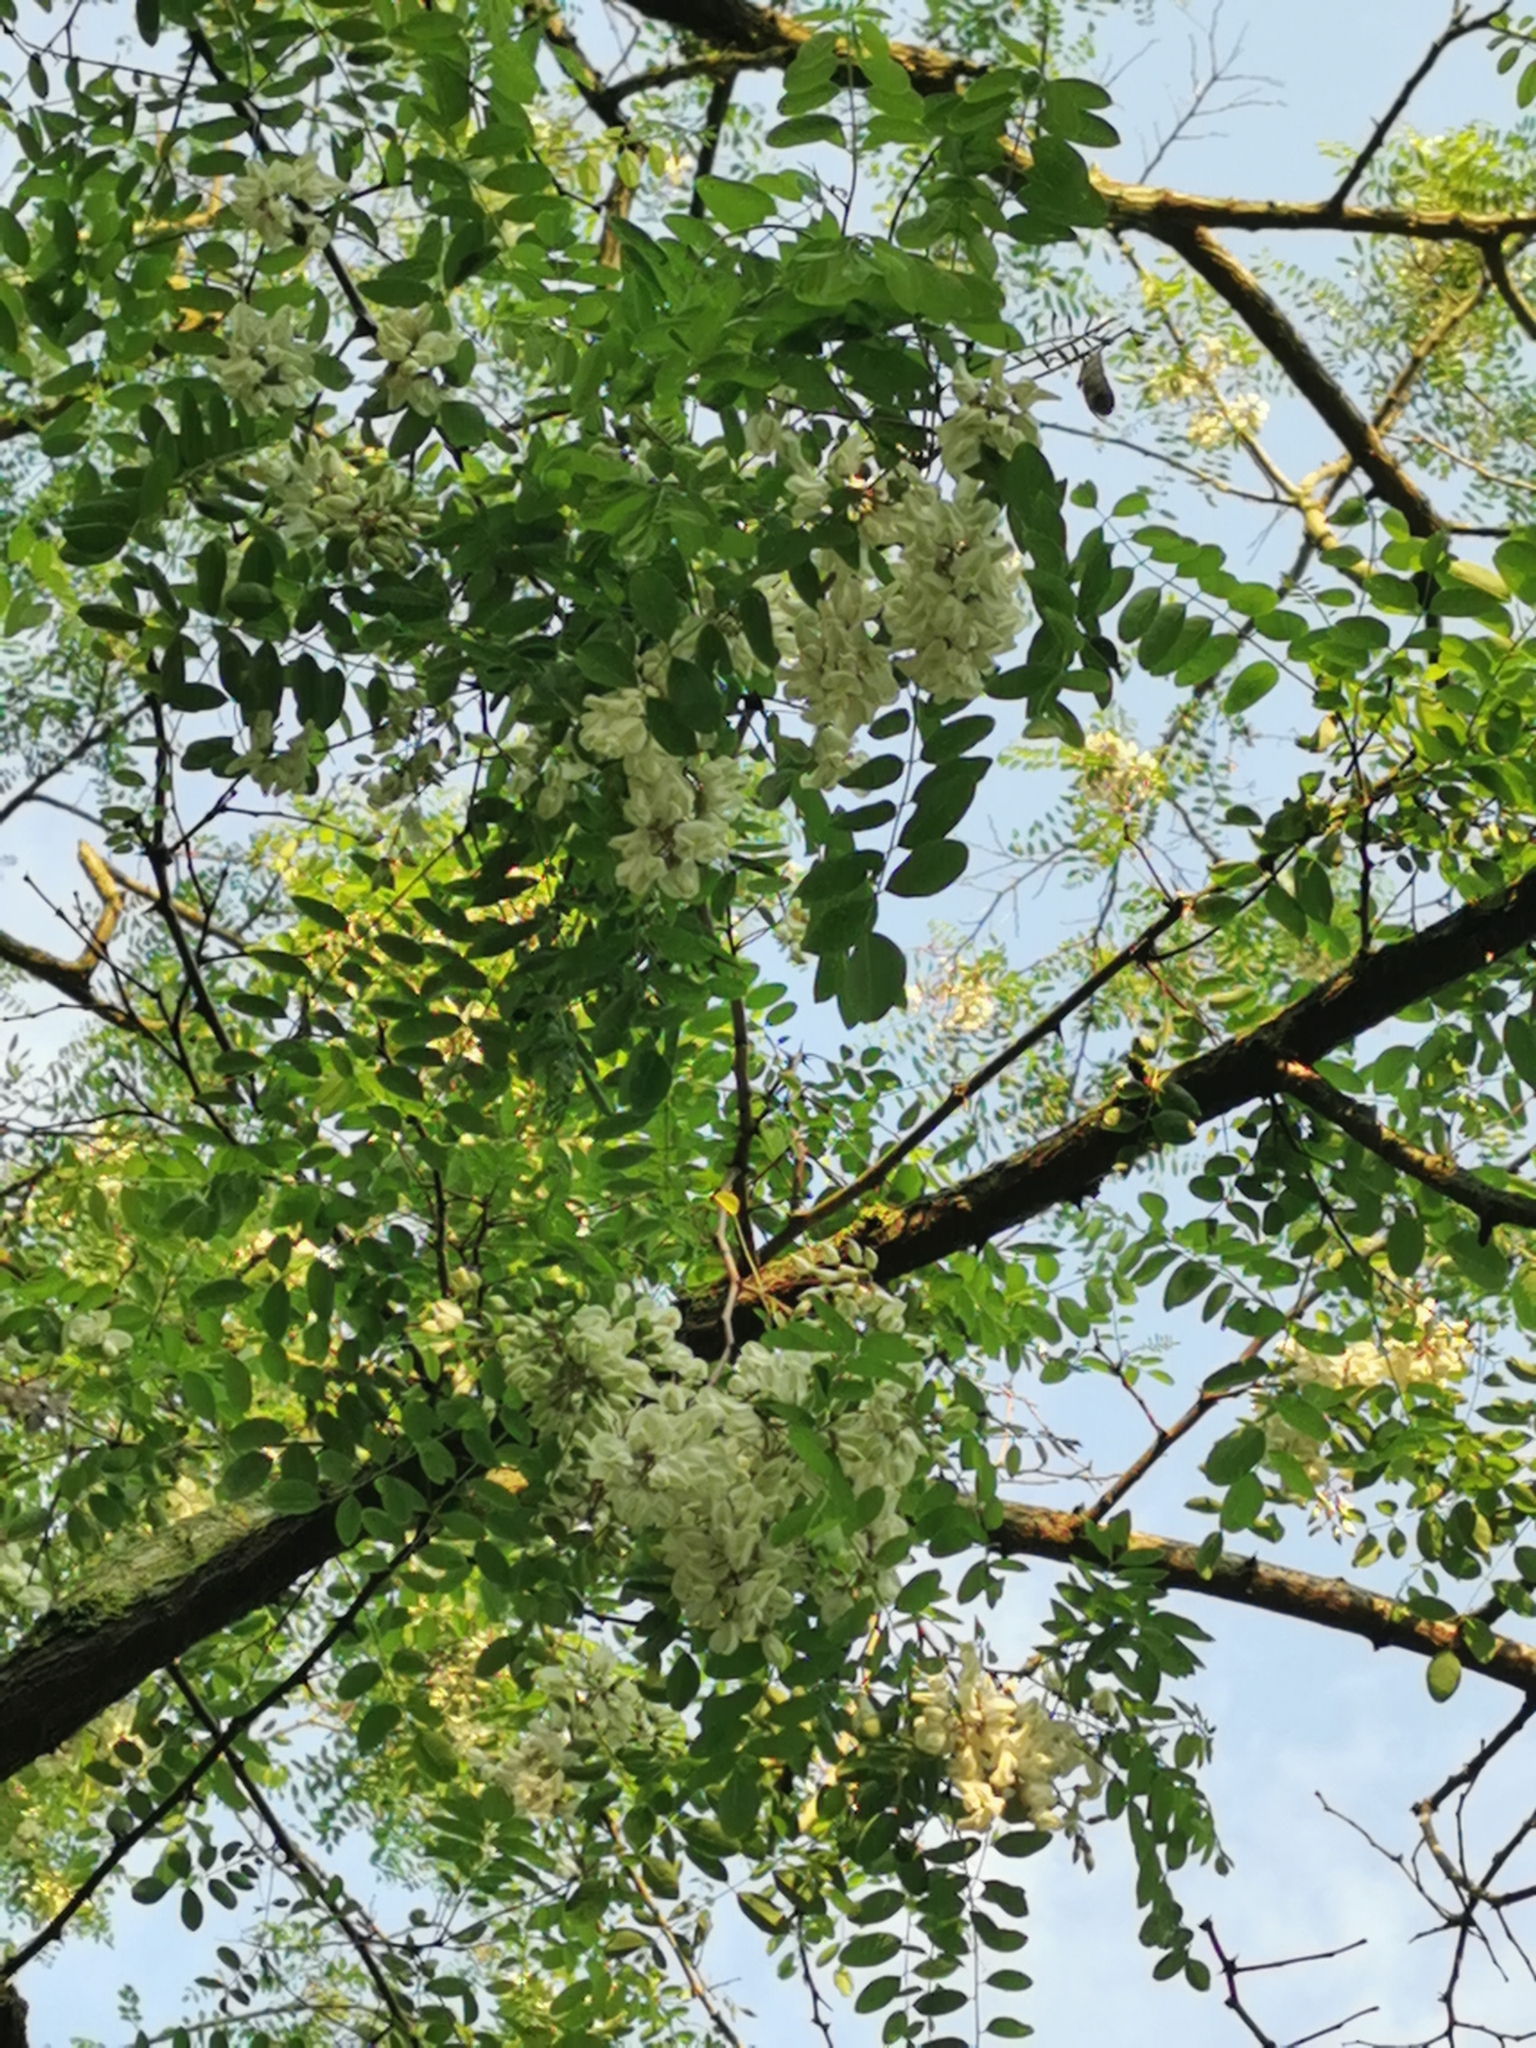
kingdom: Plantae
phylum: Tracheophyta
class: Magnoliopsida
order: Fabales
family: Fabaceae
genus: Robinia
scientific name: Robinia pseudoacacia
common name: Black locust
